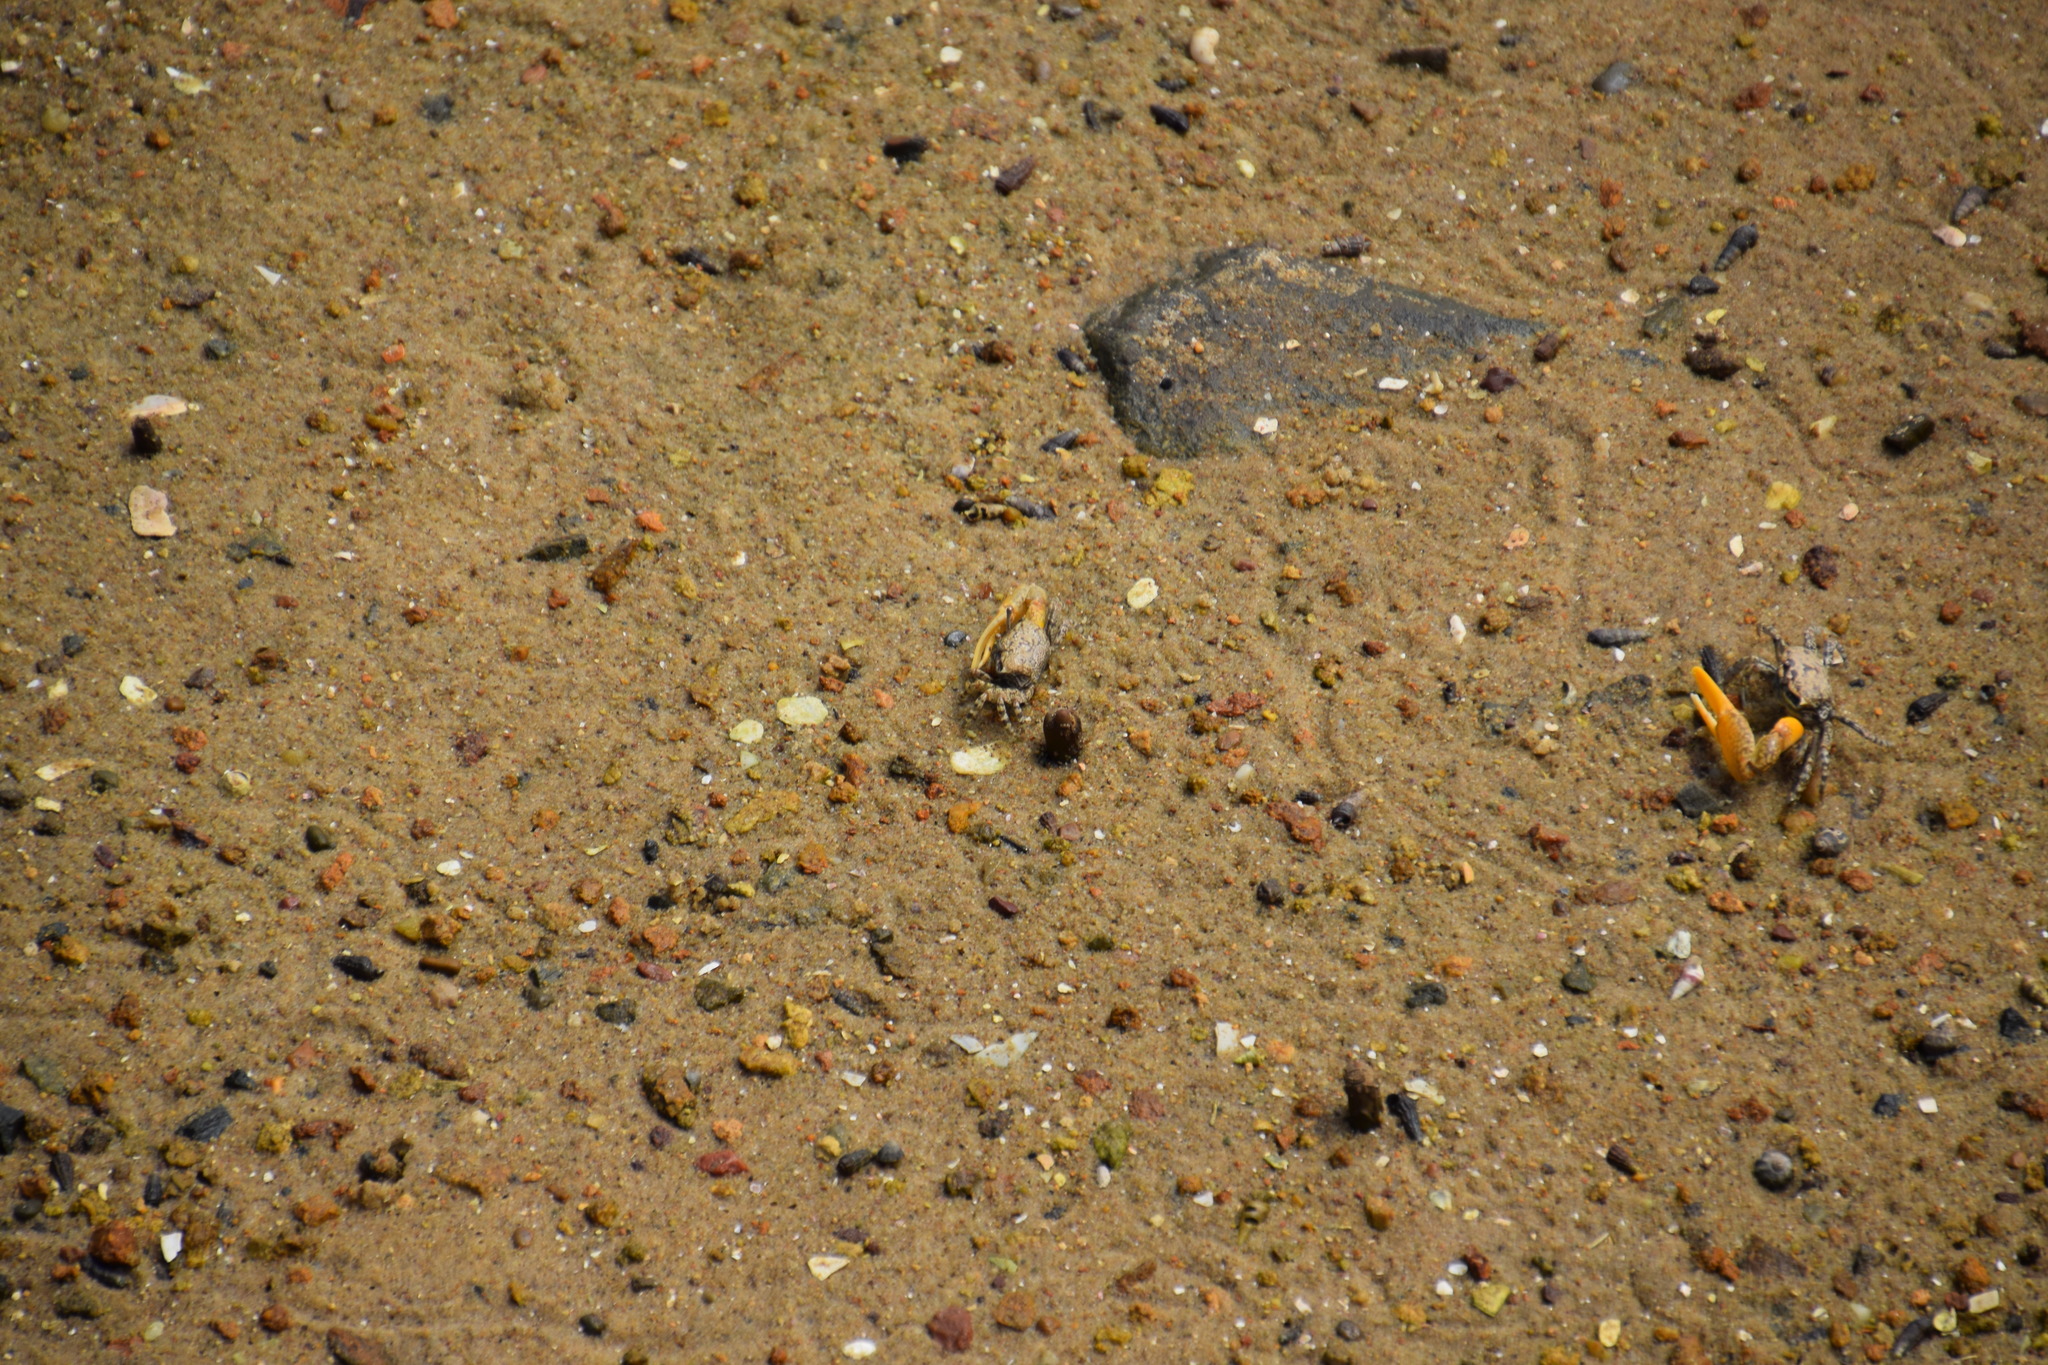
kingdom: Animalia
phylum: Arthropoda
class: Malacostraca
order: Decapoda
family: Ocypodidae
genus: Austruca
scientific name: Austruca perplexa
